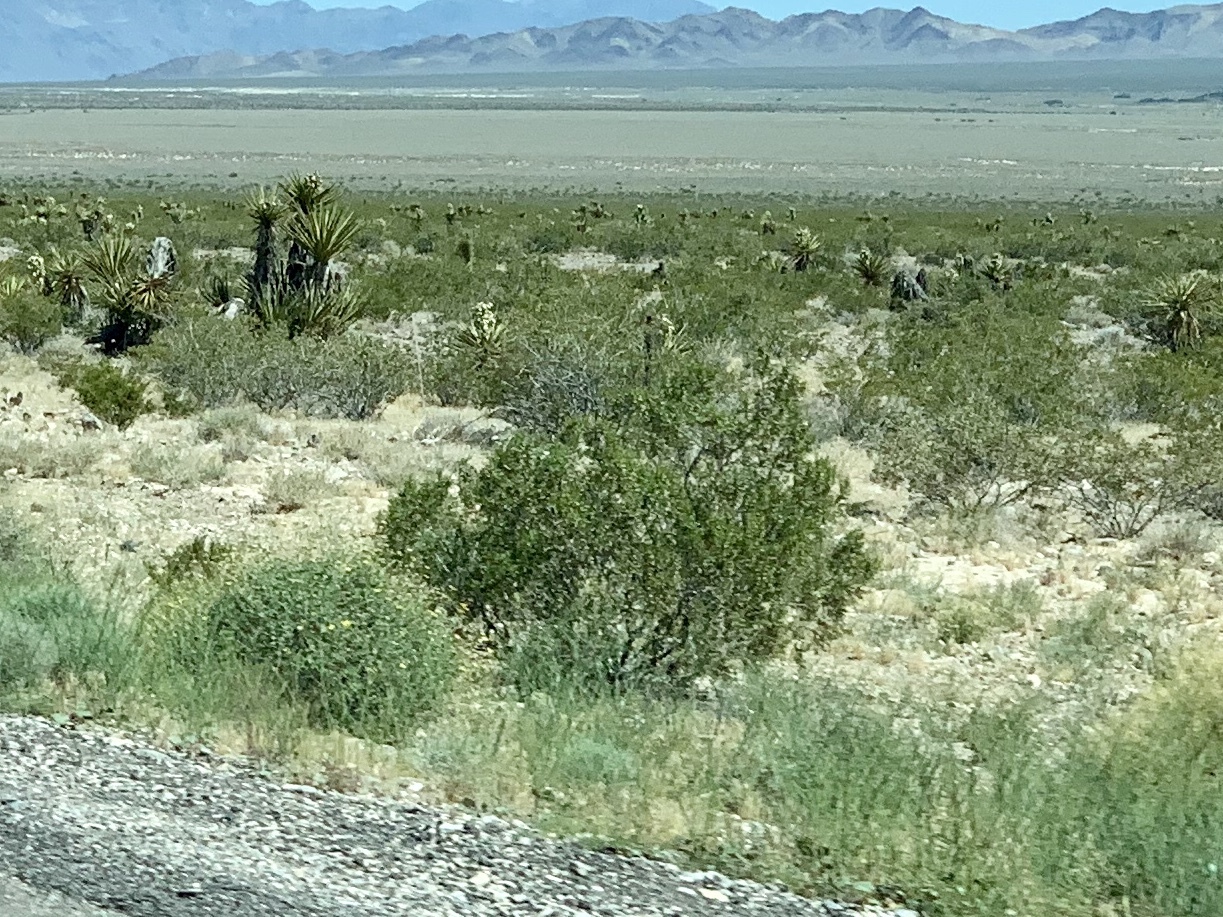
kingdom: Plantae
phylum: Tracheophyta
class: Magnoliopsida
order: Zygophyllales
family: Zygophyllaceae
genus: Larrea
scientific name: Larrea tridentata
